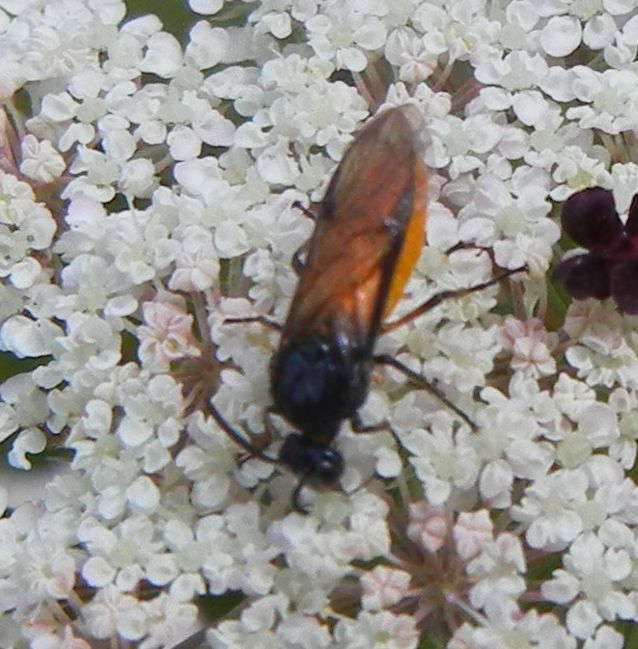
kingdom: Animalia
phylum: Arthropoda
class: Insecta
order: Hymenoptera
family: Argidae
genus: Arge
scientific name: Arge pagana
